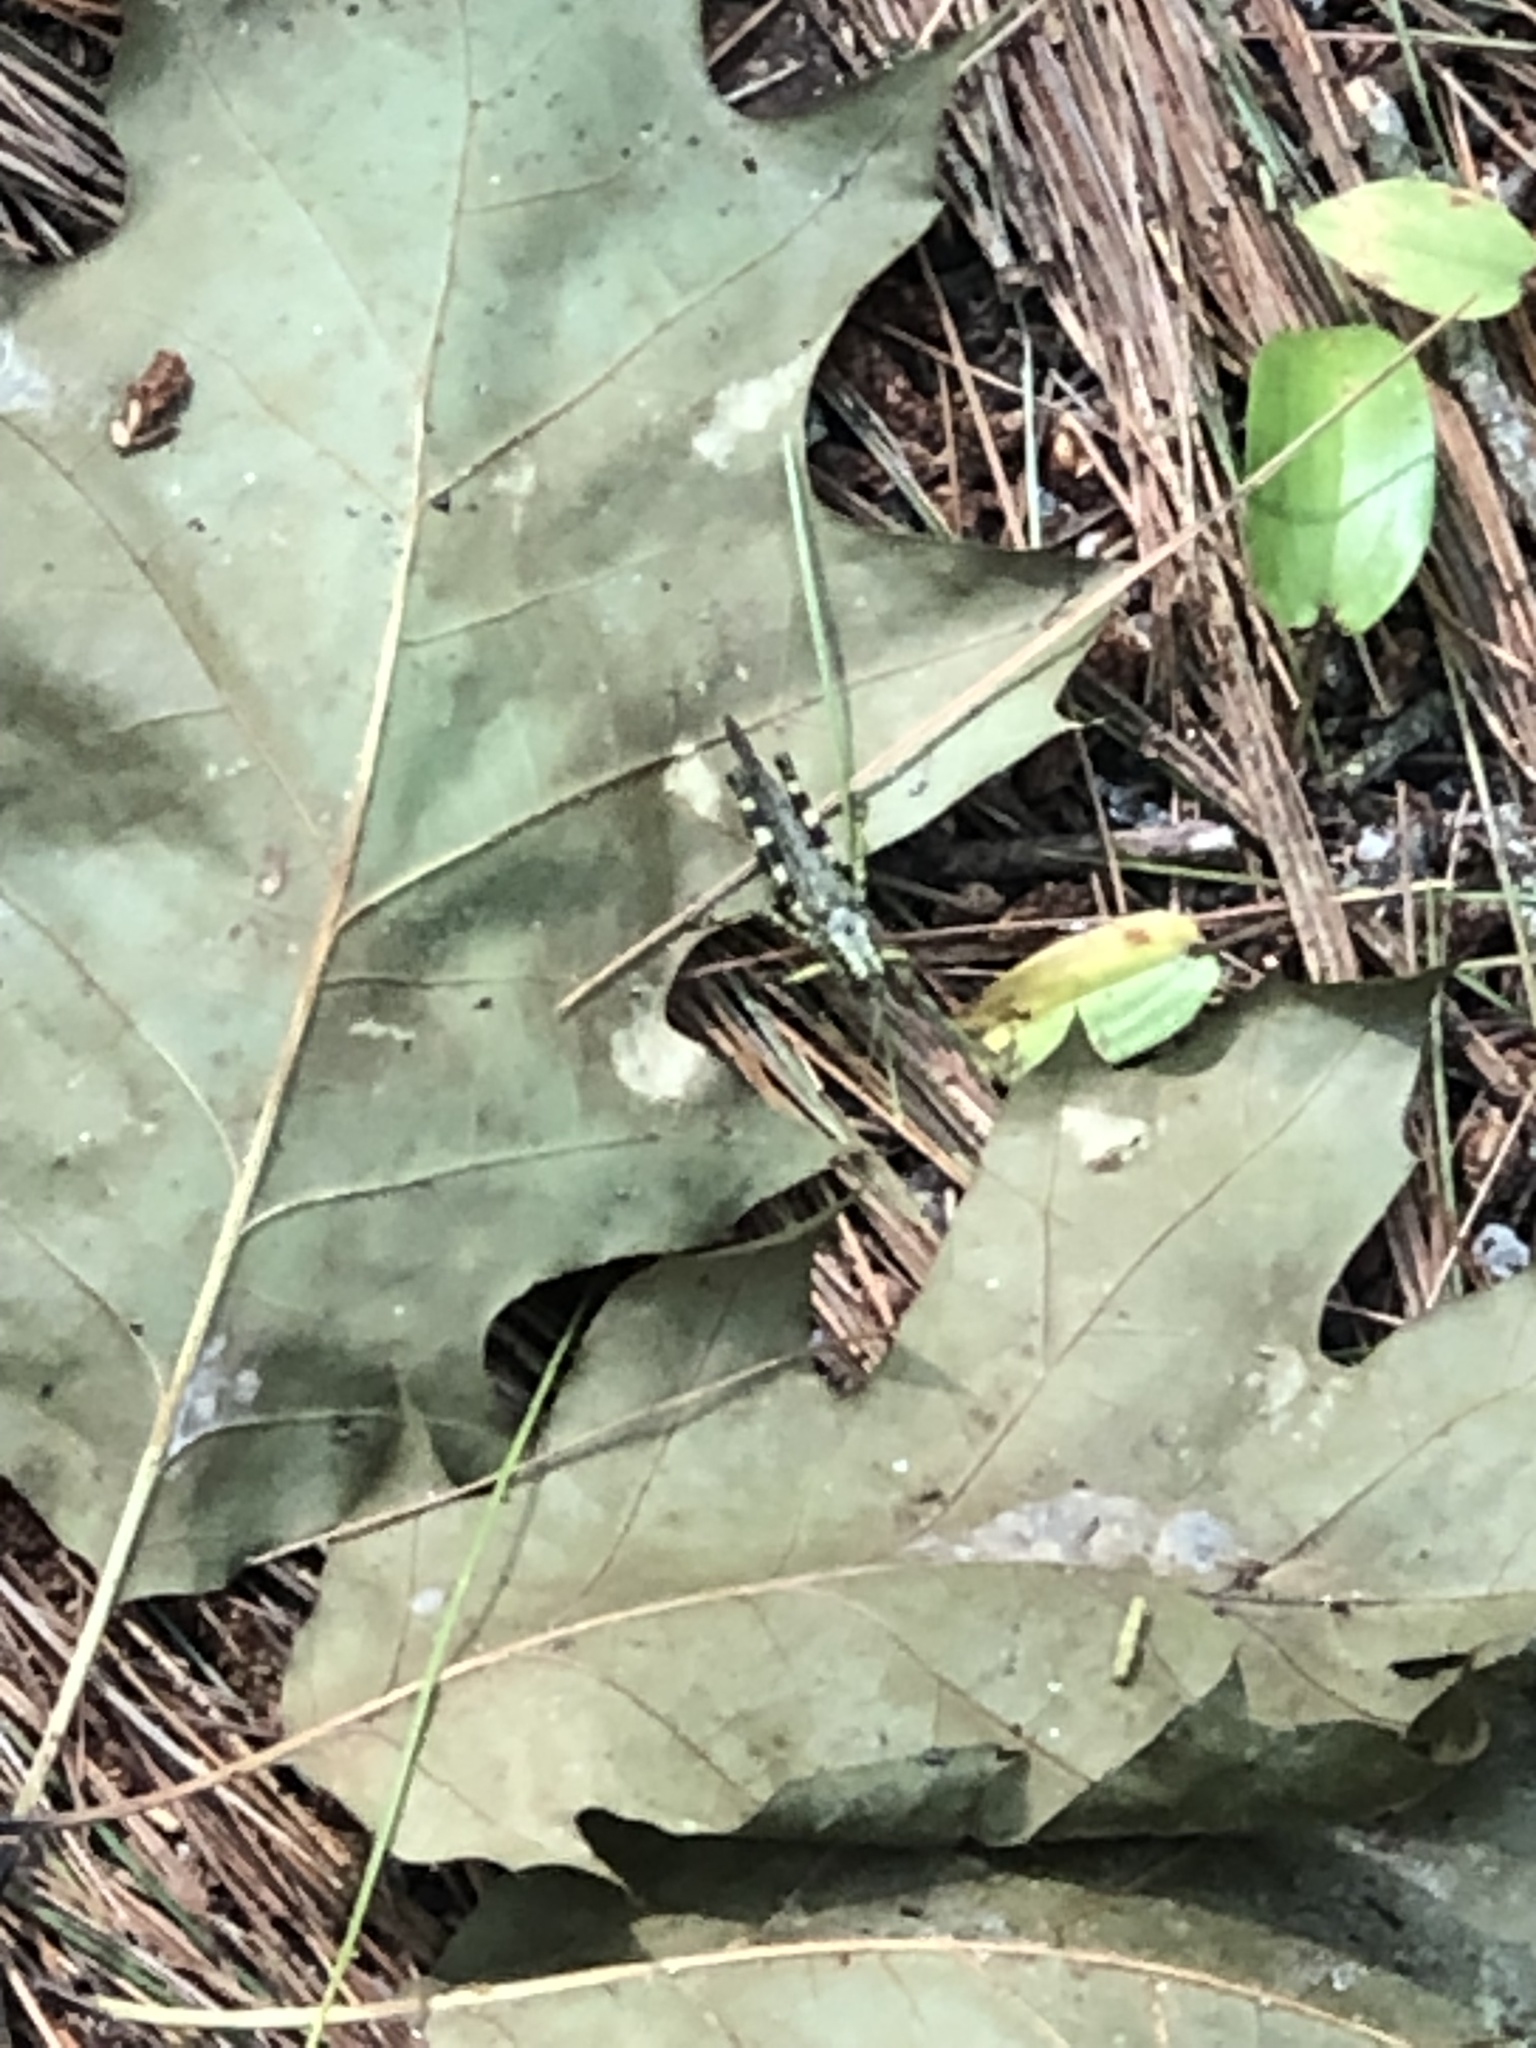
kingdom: Animalia
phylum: Arthropoda
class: Insecta
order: Orthoptera
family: Acrididae
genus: Melanoplus
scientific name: Melanoplus punctulatus
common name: Pine-tree spur-throat grasshopper
